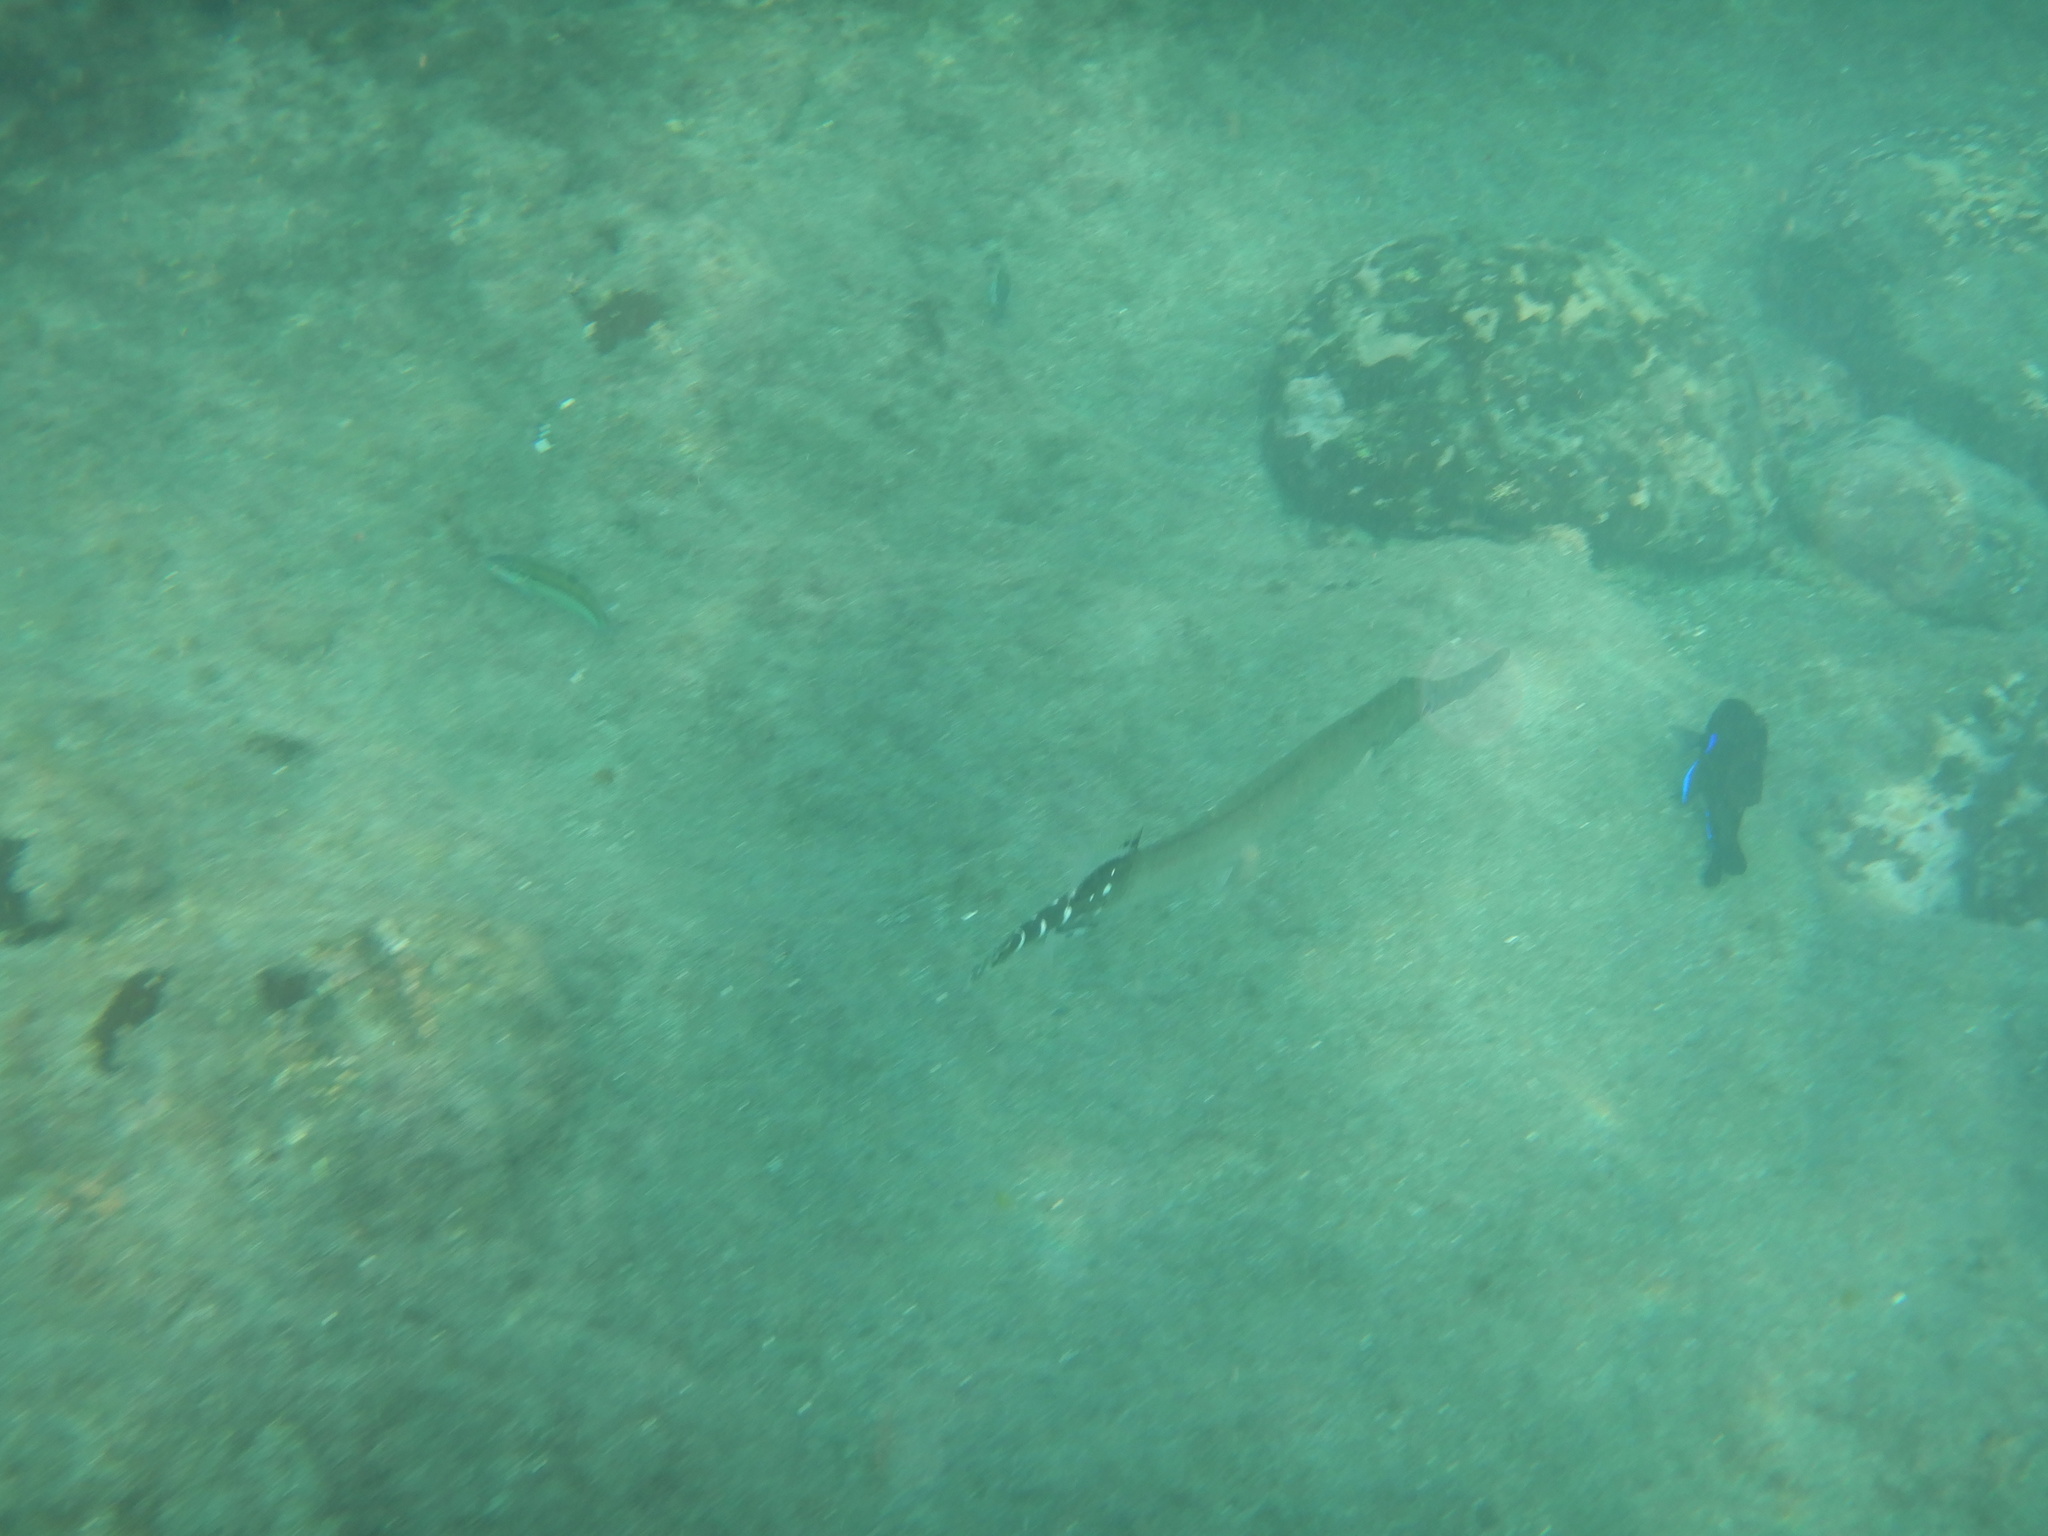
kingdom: Animalia
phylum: Chordata
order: Syngnathiformes
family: Aulostomidae
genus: Aulostomus
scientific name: Aulostomus strigosus
